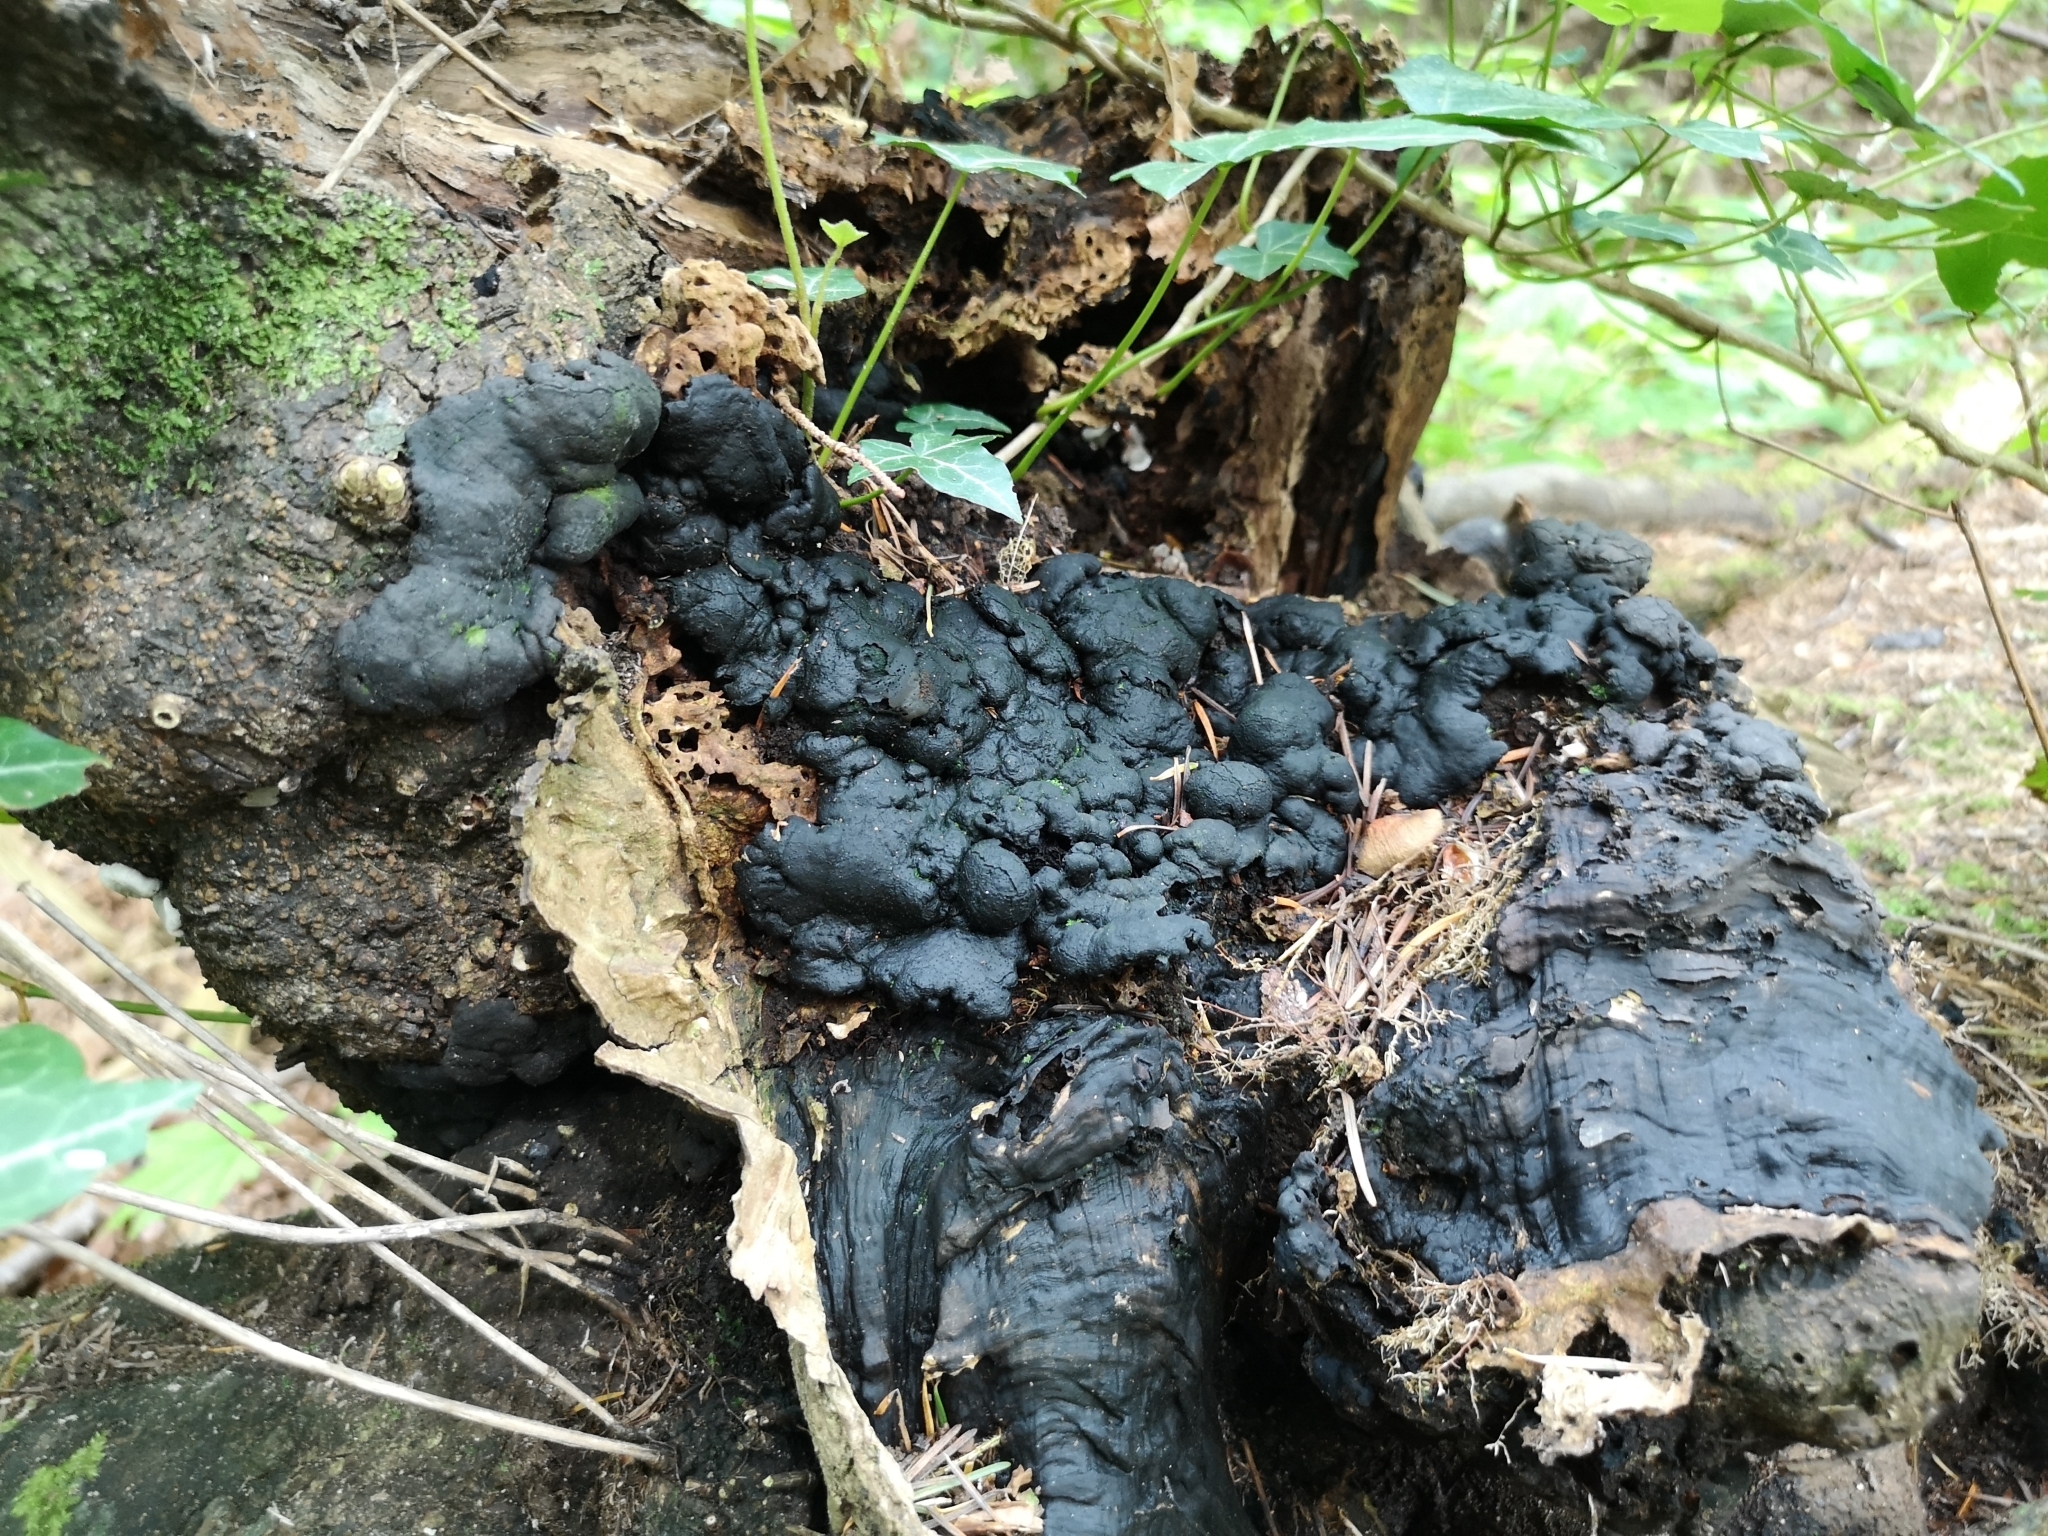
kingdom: Fungi
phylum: Ascomycota
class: Sordariomycetes
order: Xylariales
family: Xylariaceae
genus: Kretzschmaria
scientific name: Kretzschmaria deusta
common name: Brittle cinder
